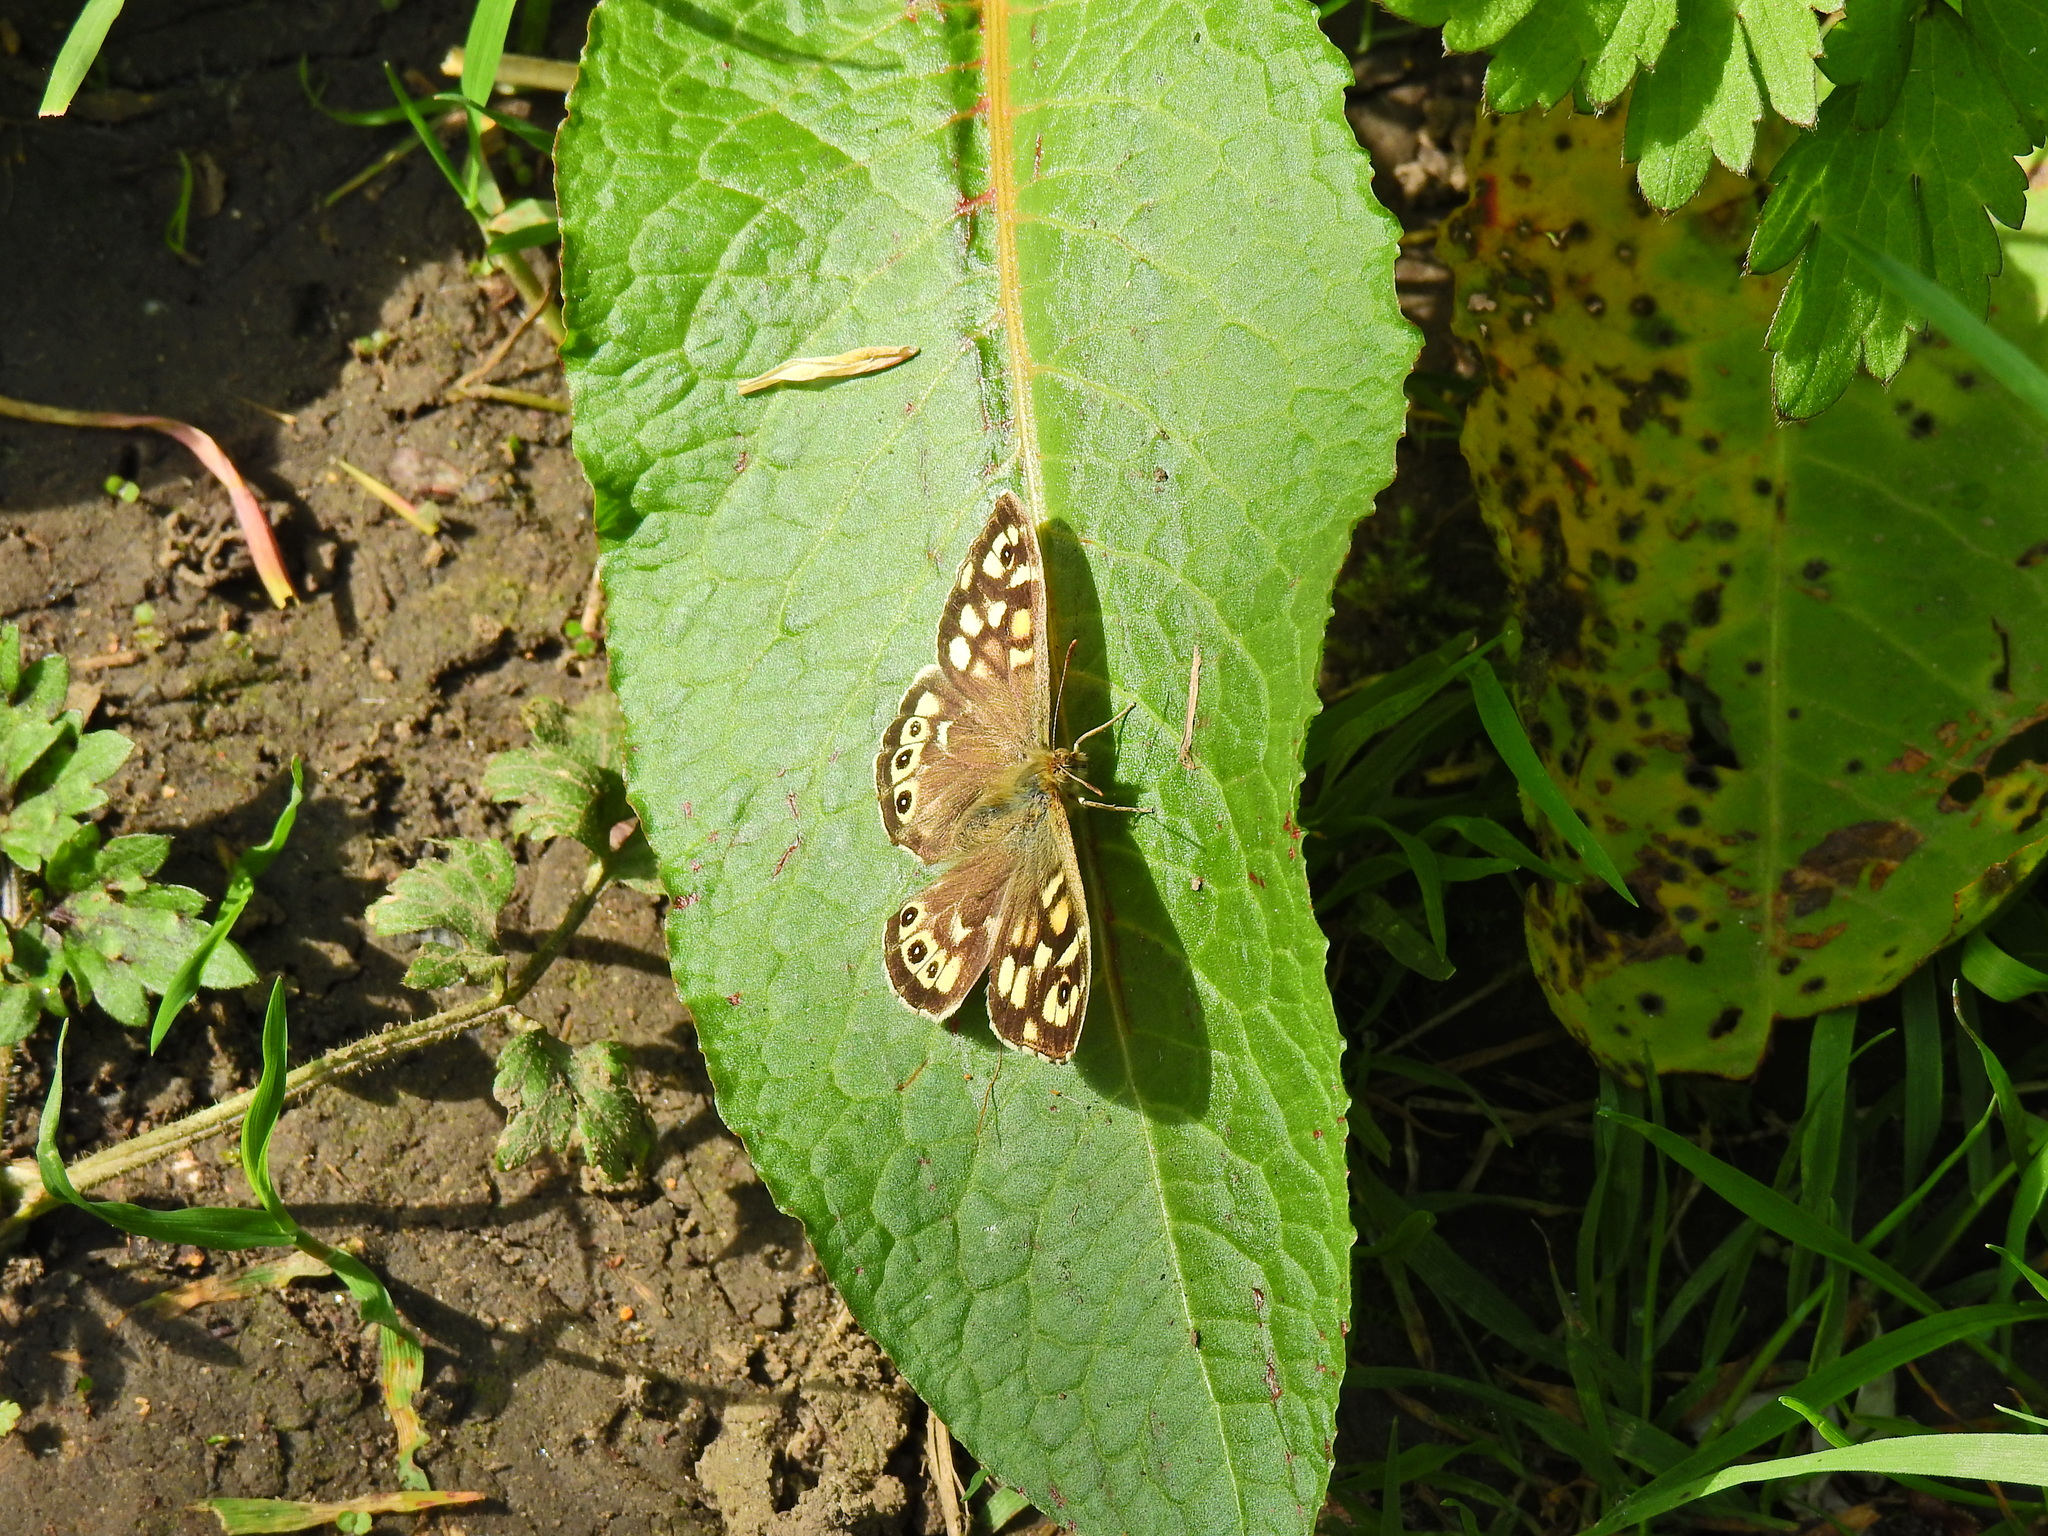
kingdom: Animalia
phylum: Arthropoda
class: Insecta
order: Lepidoptera
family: Nymphalidae
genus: Pararge
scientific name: Pararge aegeria
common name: Speckled wood
